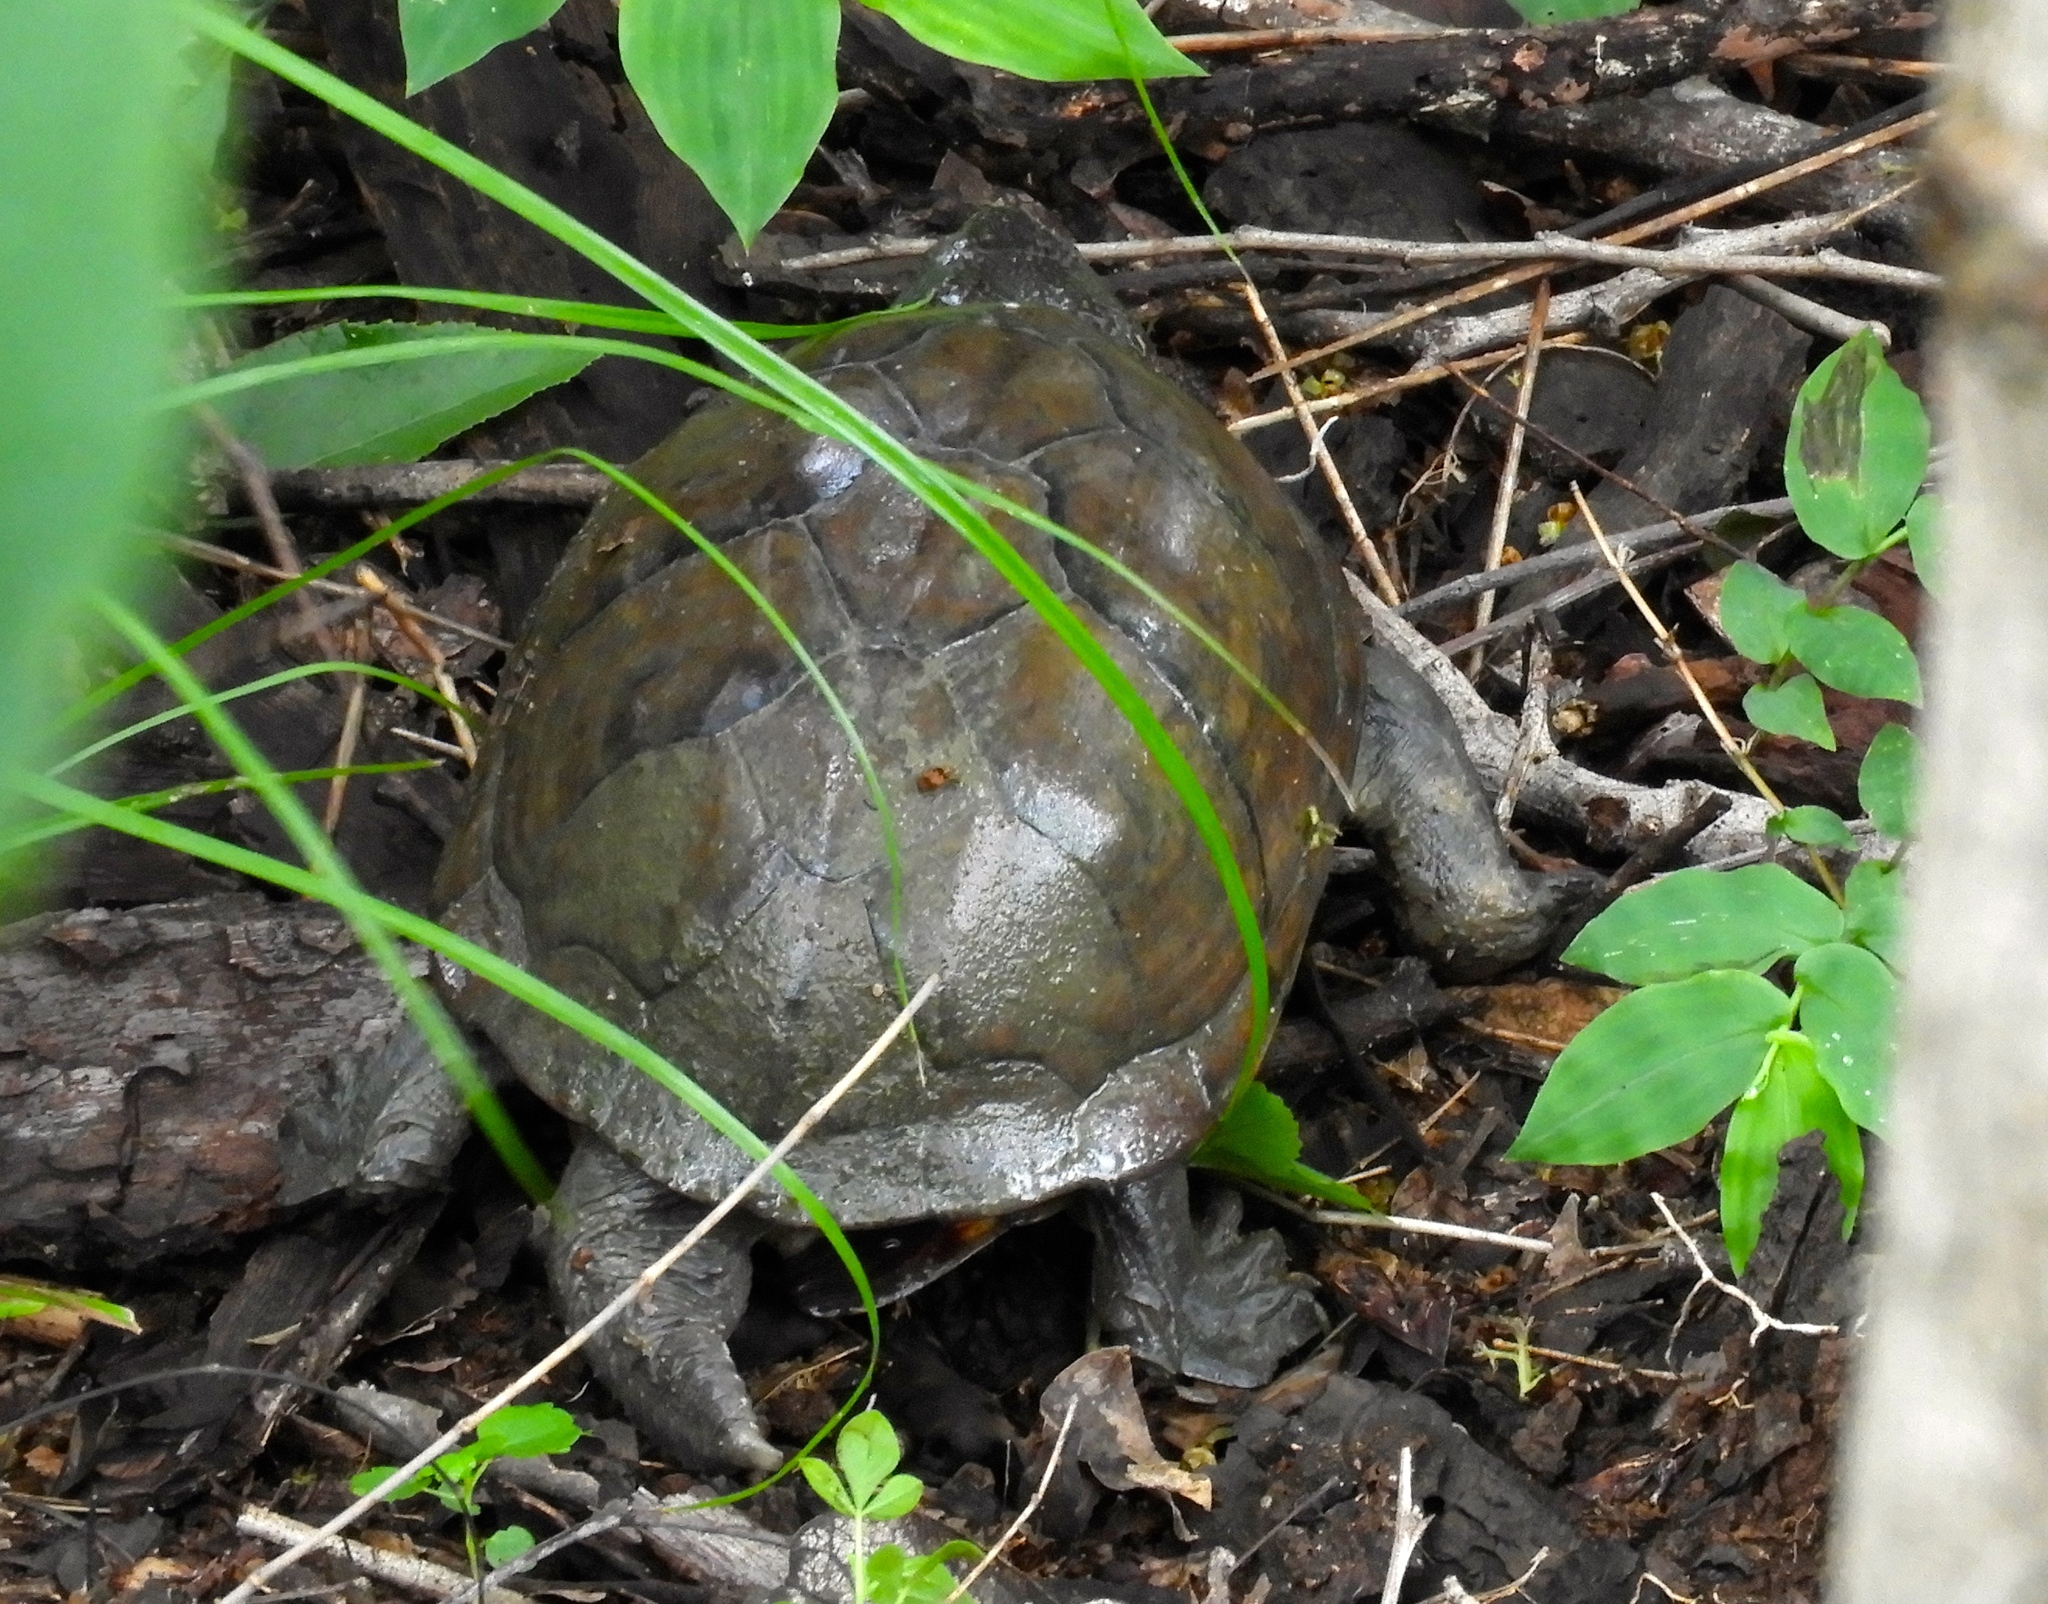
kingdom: Animalia
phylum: Chordata
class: Testudines
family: Kinosternidae
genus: Kinosternon
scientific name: Kinosternon integrum
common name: Mexican mud turtle
